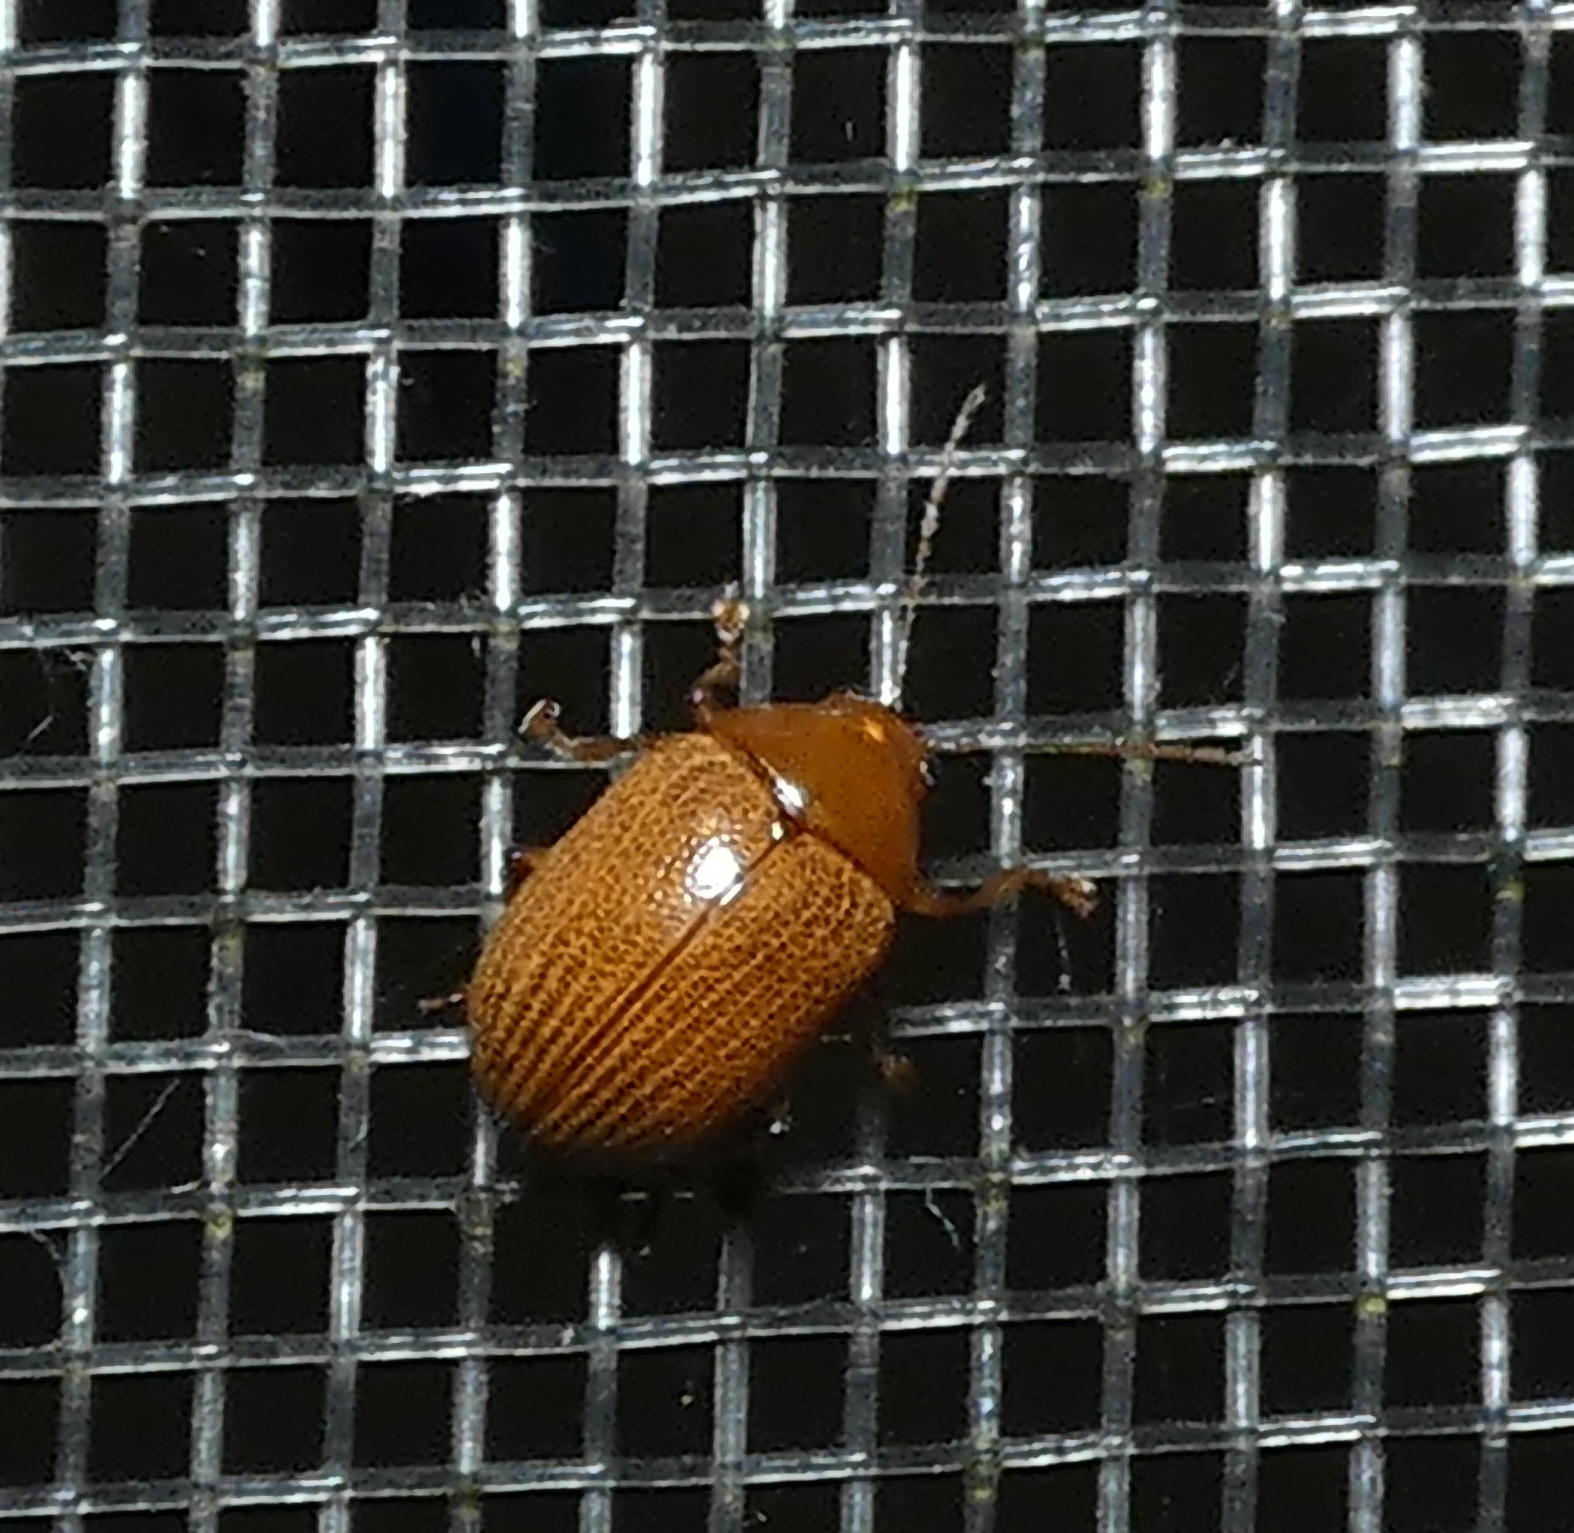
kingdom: Animalia
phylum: Arthropoda
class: Insecta
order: Coleoptera
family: Chrysomelidae
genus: Anisodera
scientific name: Anisodera ferruginea
